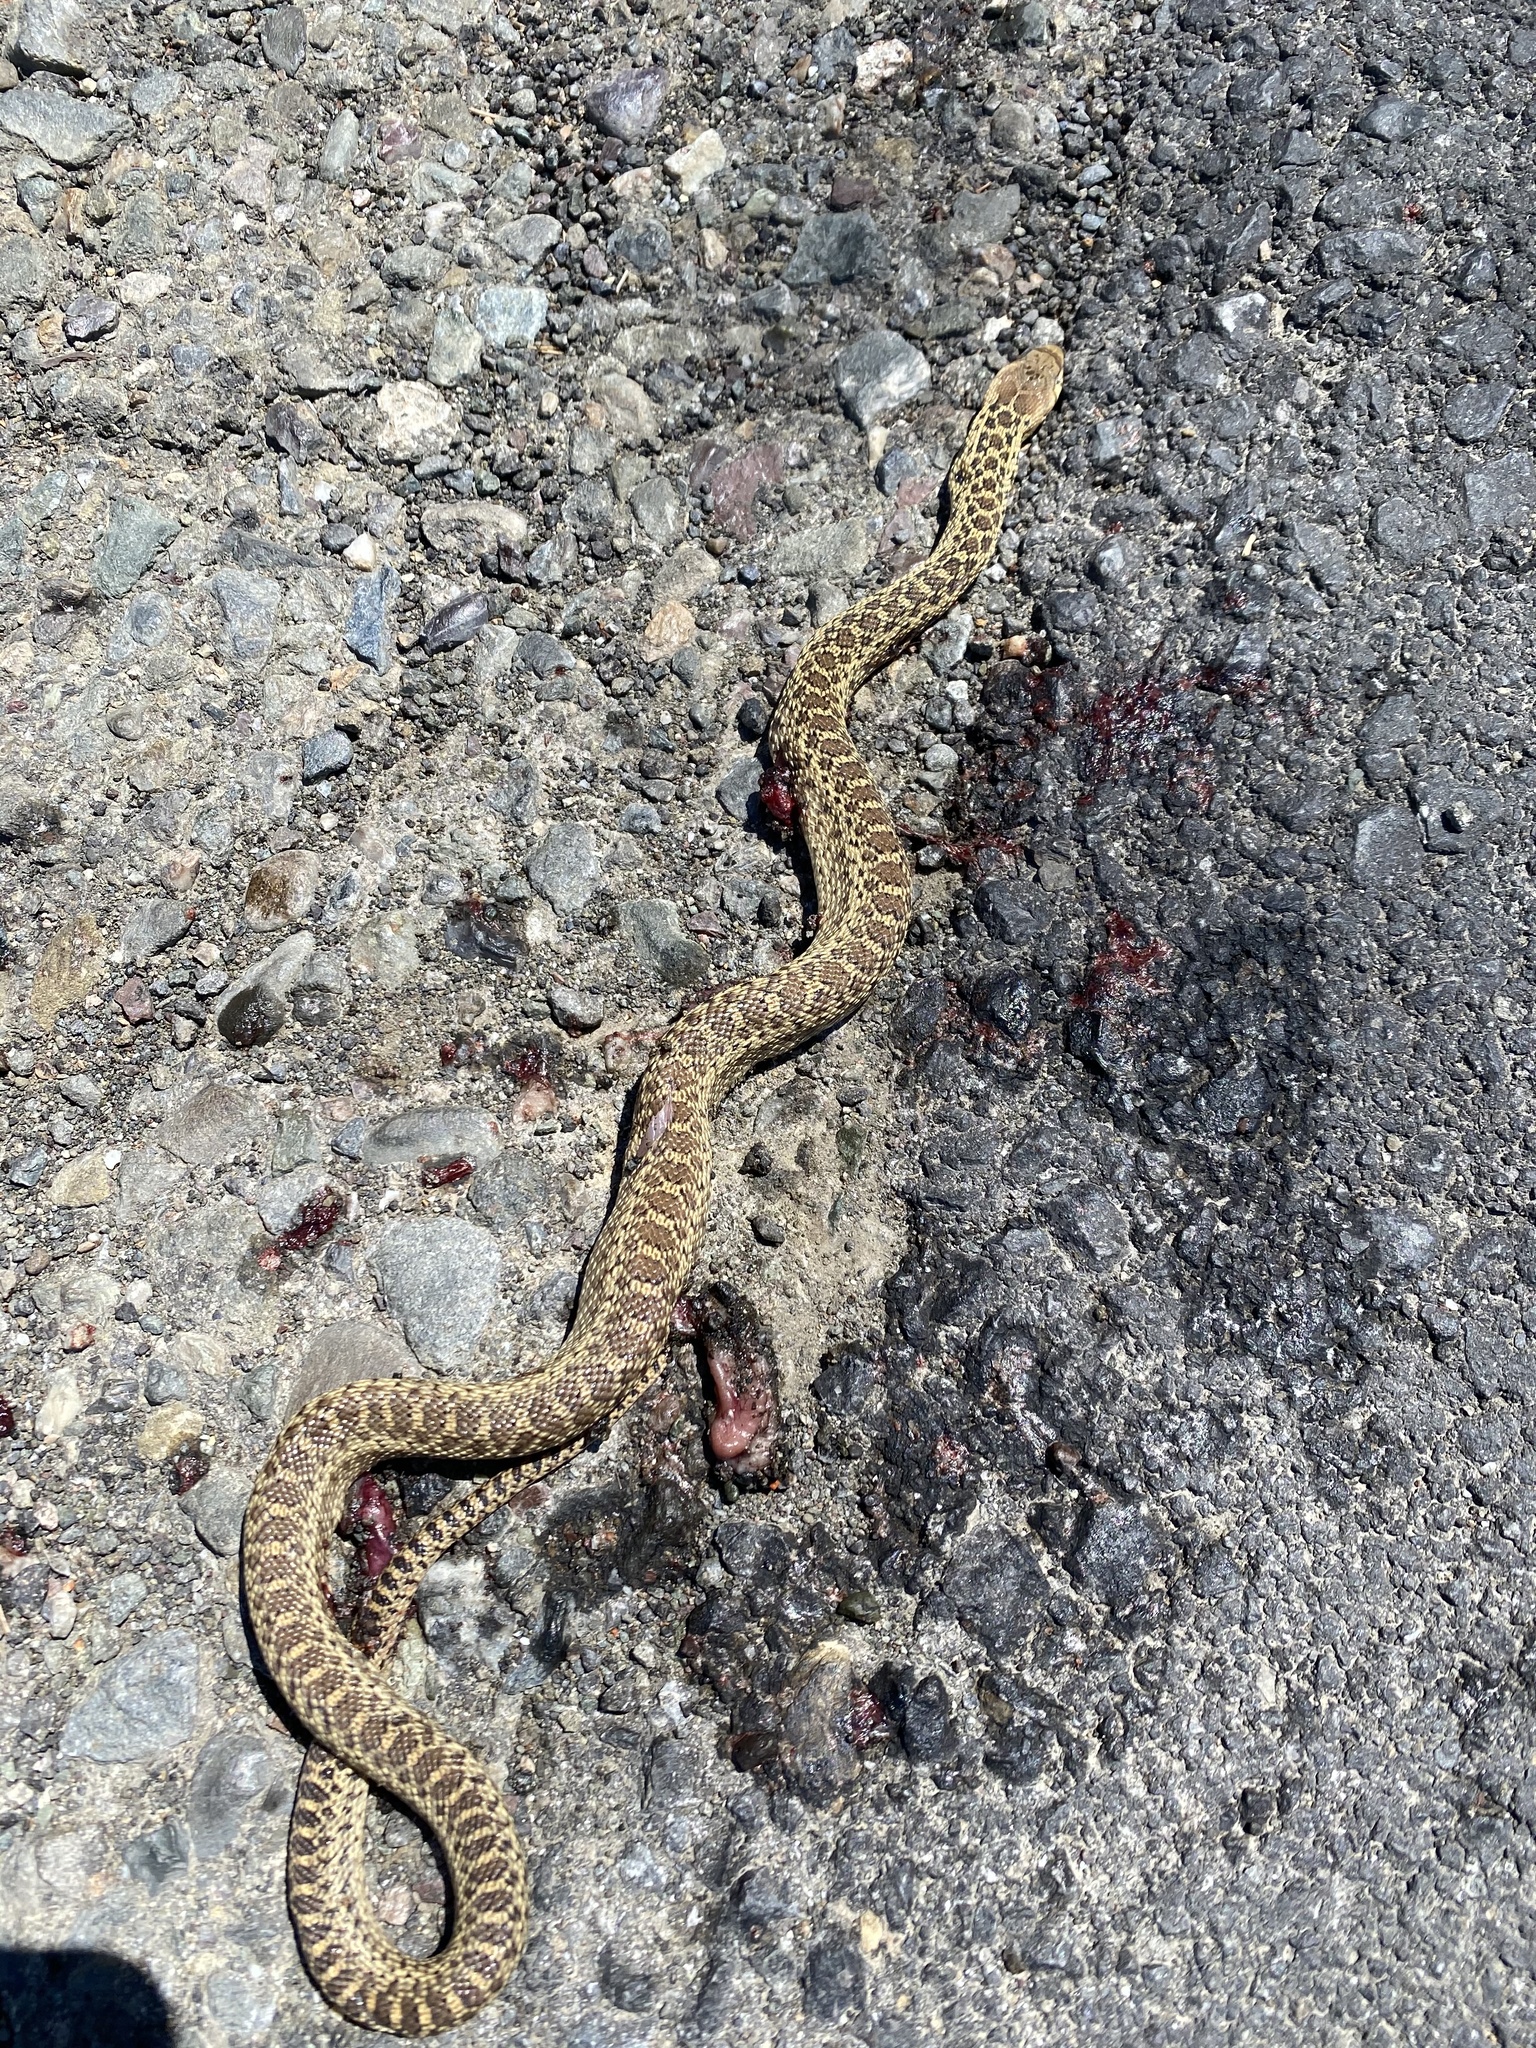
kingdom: Animalia
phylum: Chordata
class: Squamata
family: Colubridae
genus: Pituophis
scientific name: Pituophis catenifer
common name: Gopher snake
